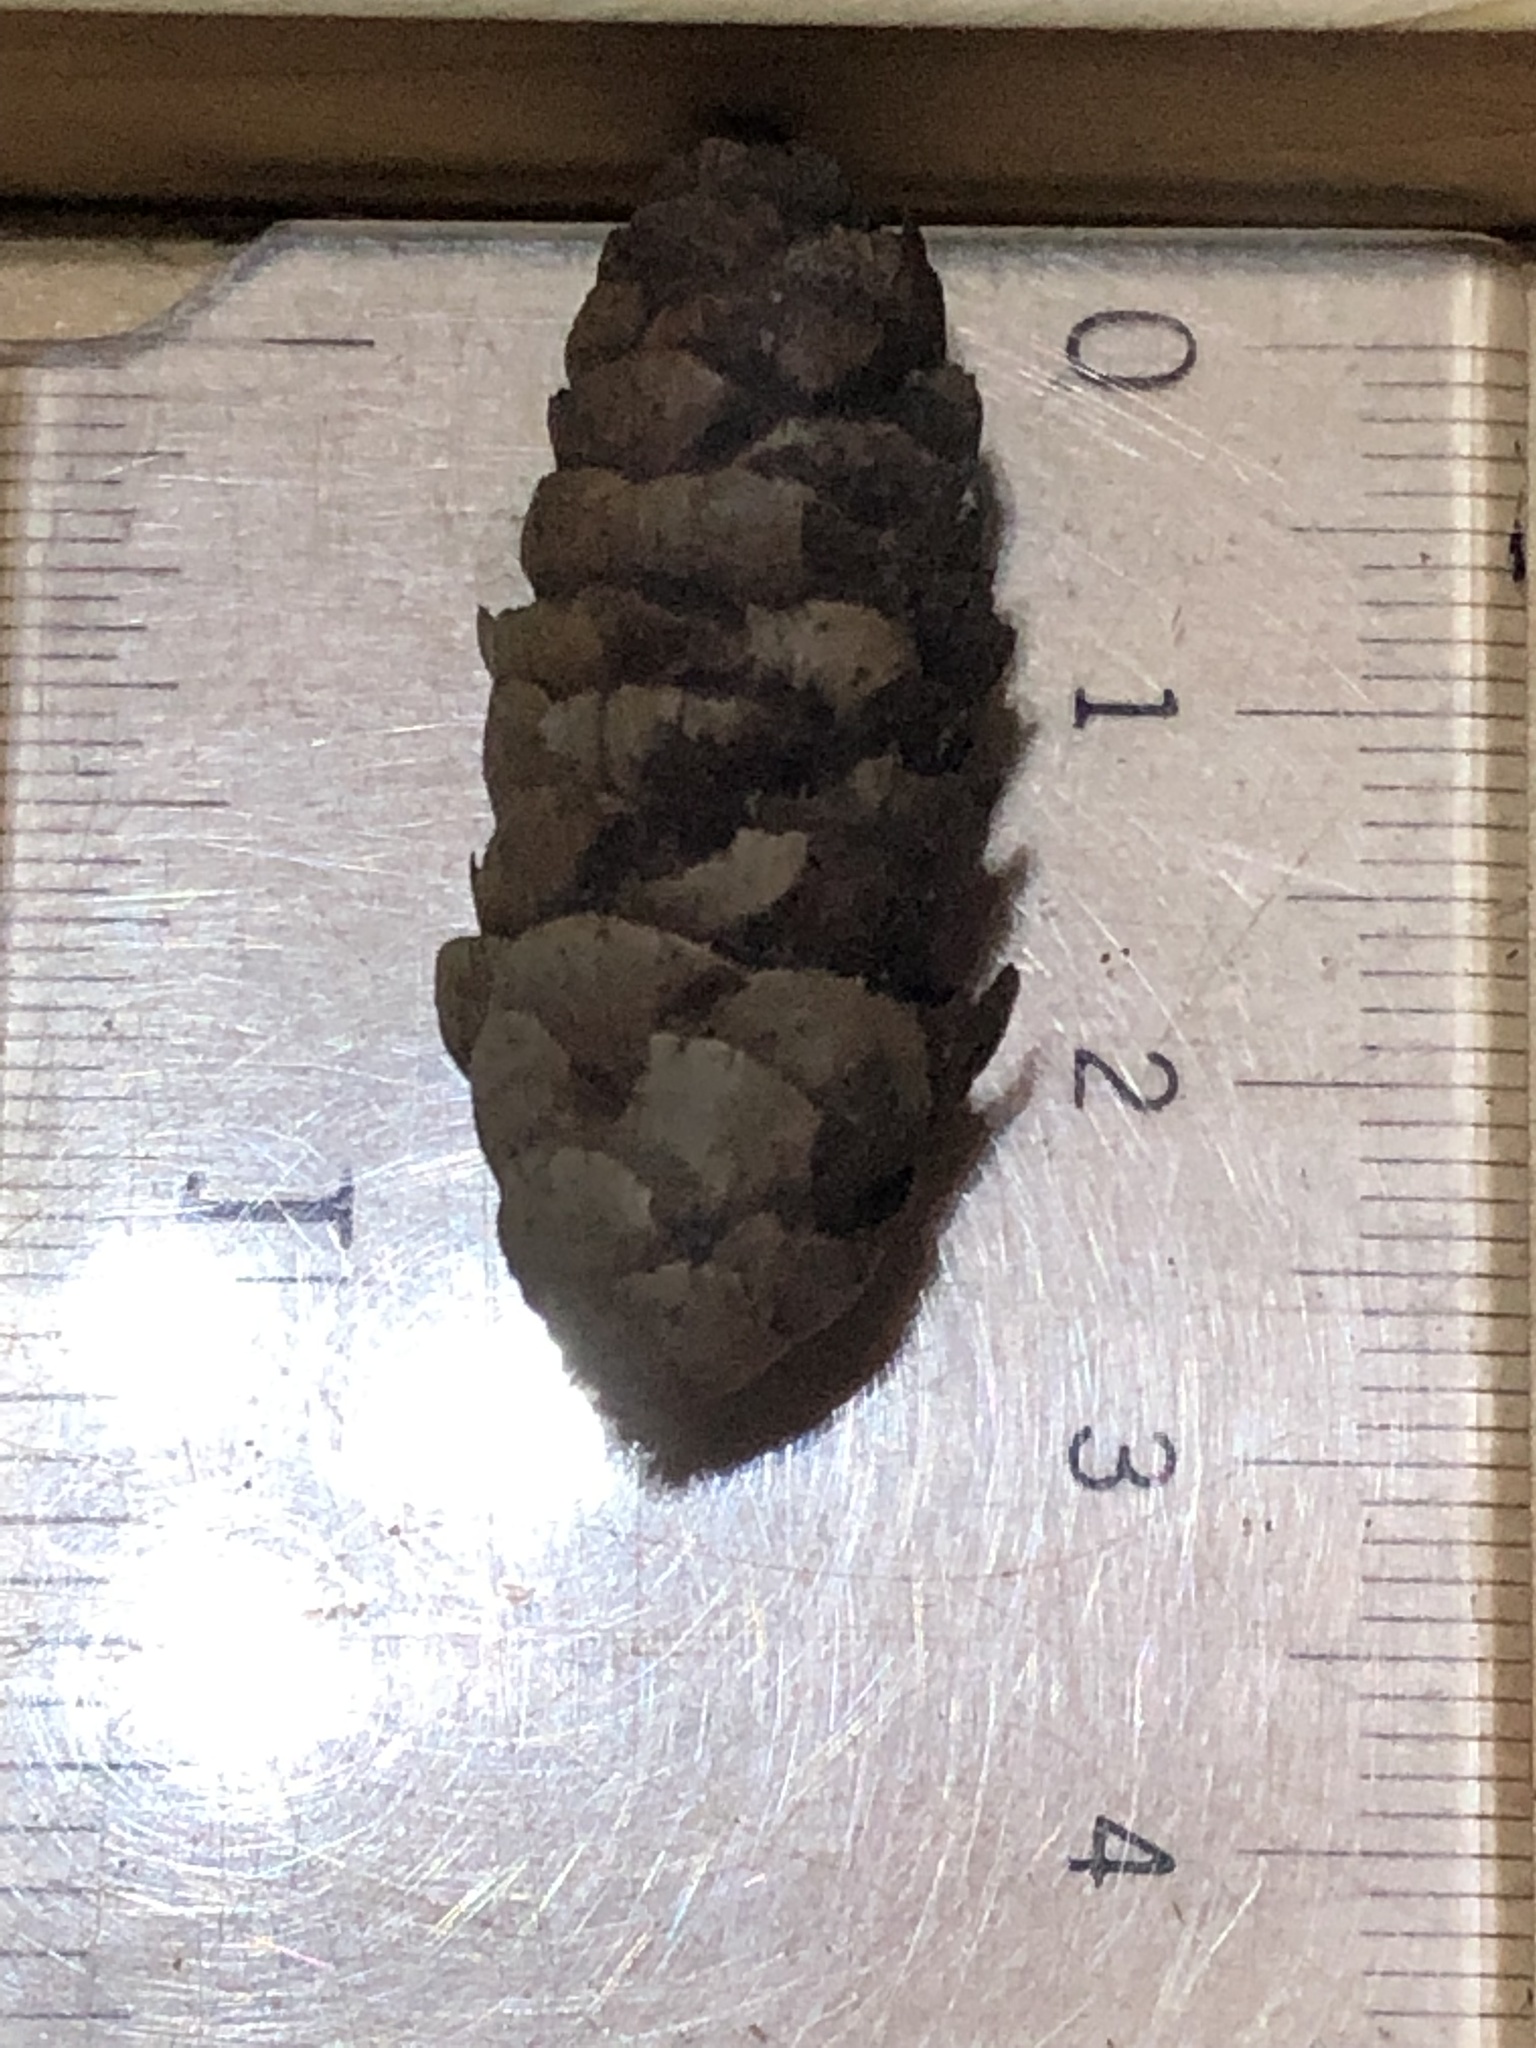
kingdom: Plantae
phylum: Tracheophyta
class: Pinopsida
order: Pinales
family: Pinaceae
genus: Picea
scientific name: Picea glauca
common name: White spruce
